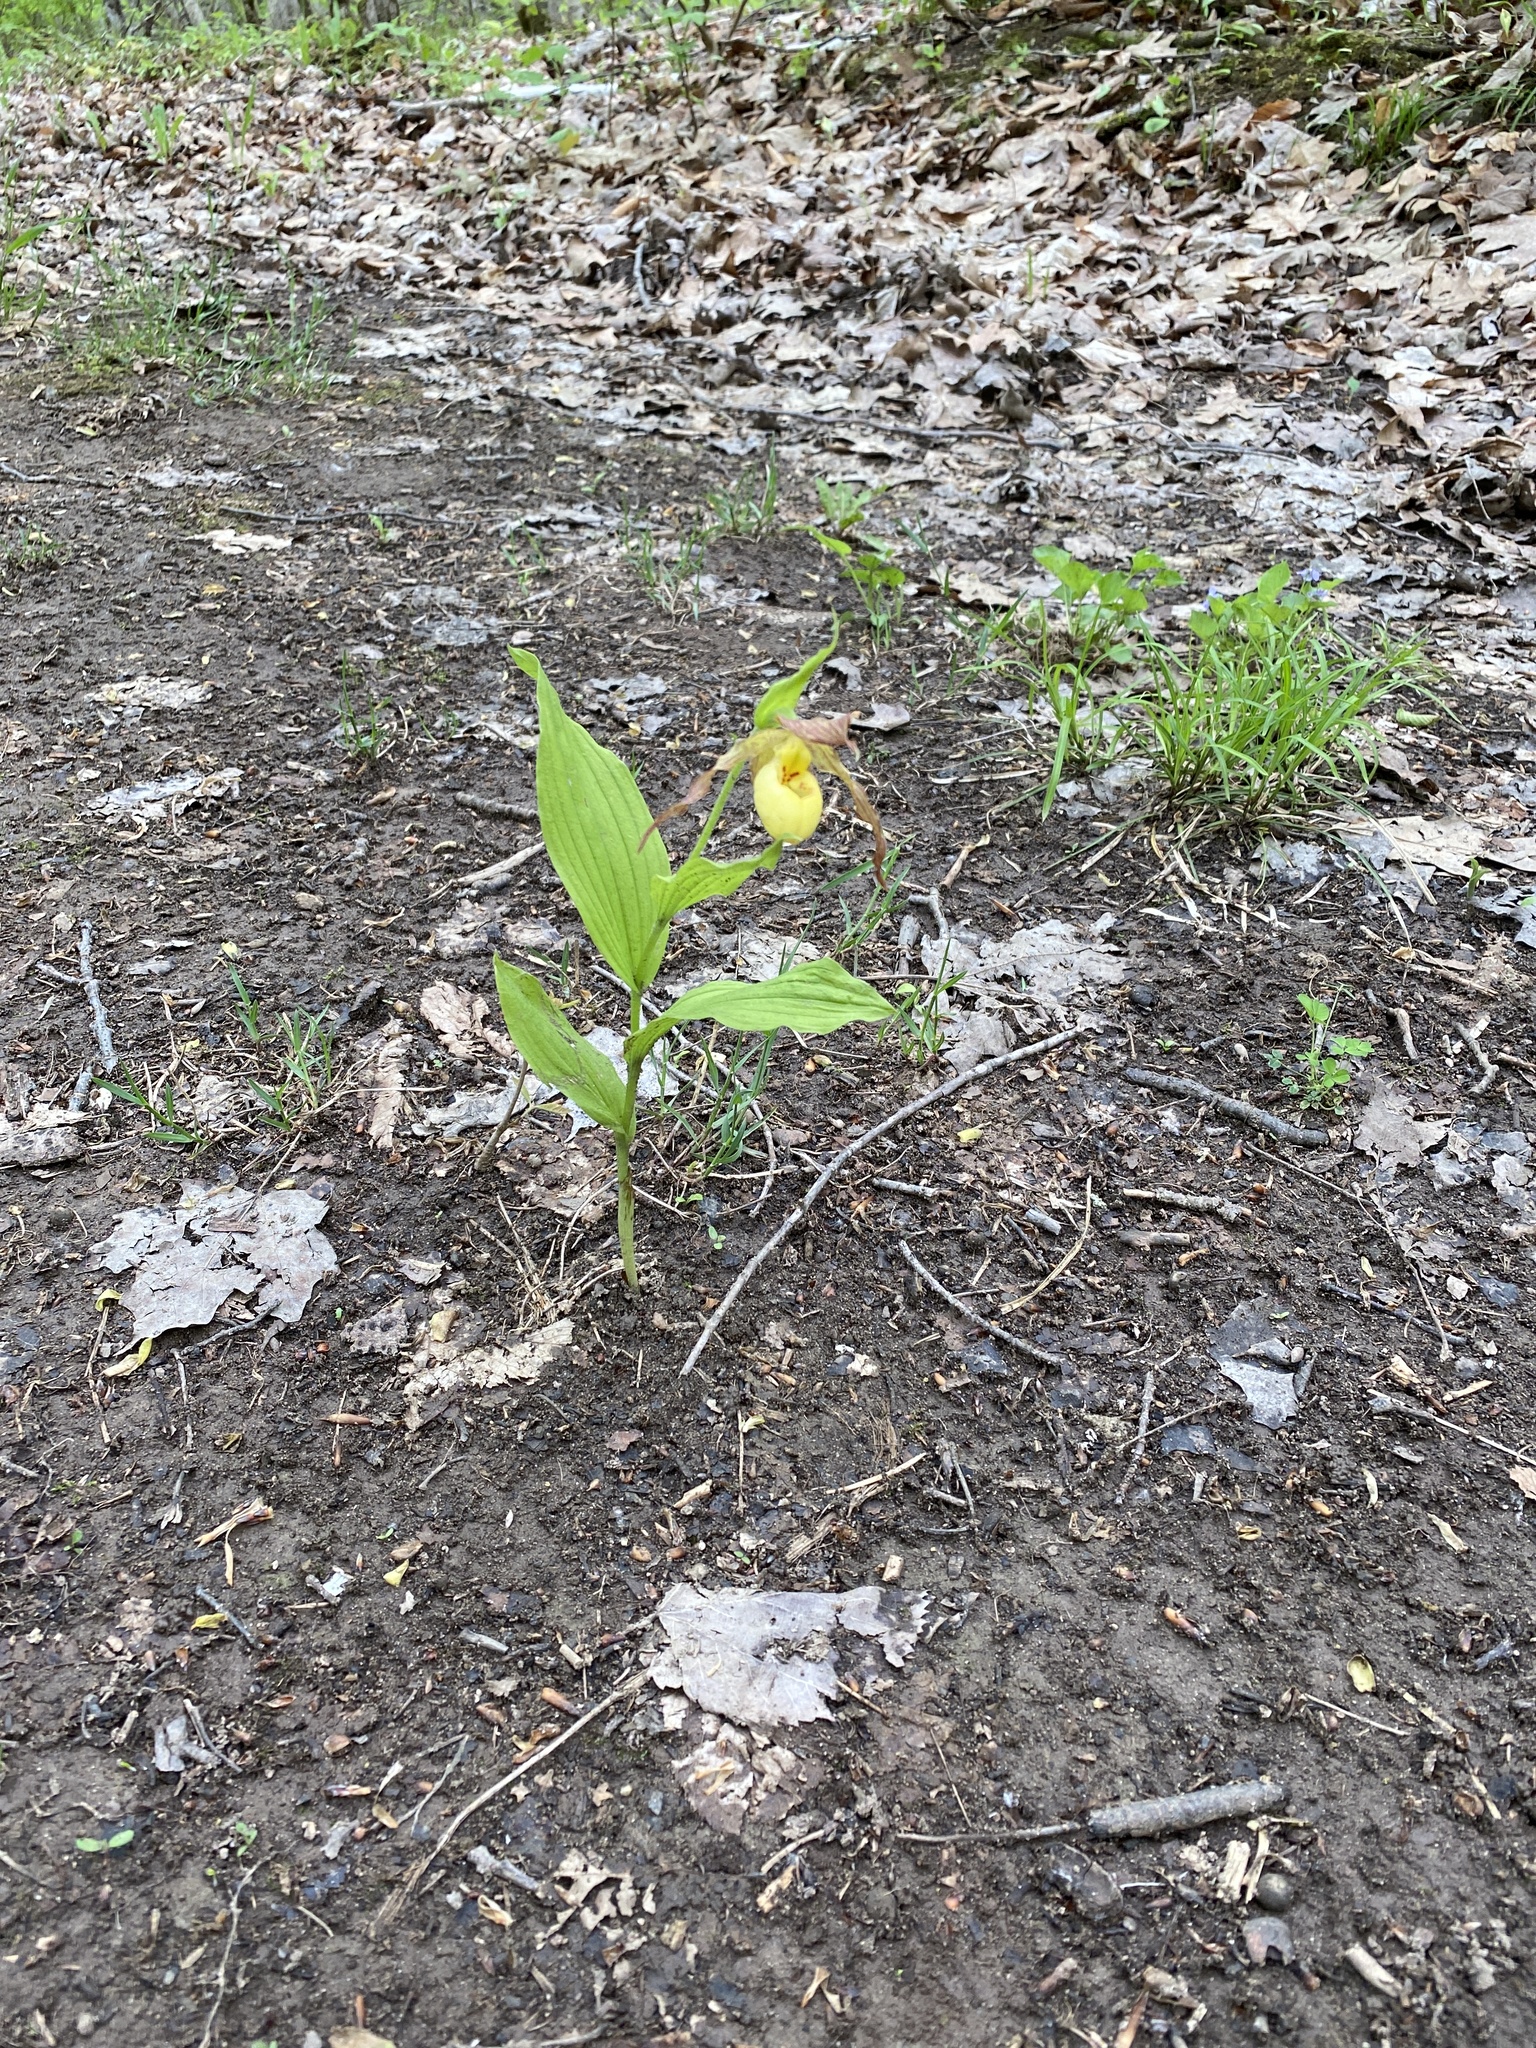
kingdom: Plantae
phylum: Tracheophyta
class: Liliopsida
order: Asparagales
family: Orchidaceae
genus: Cypripedium
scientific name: Cypripedium parviflorum
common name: American yellow lady's-slipper
